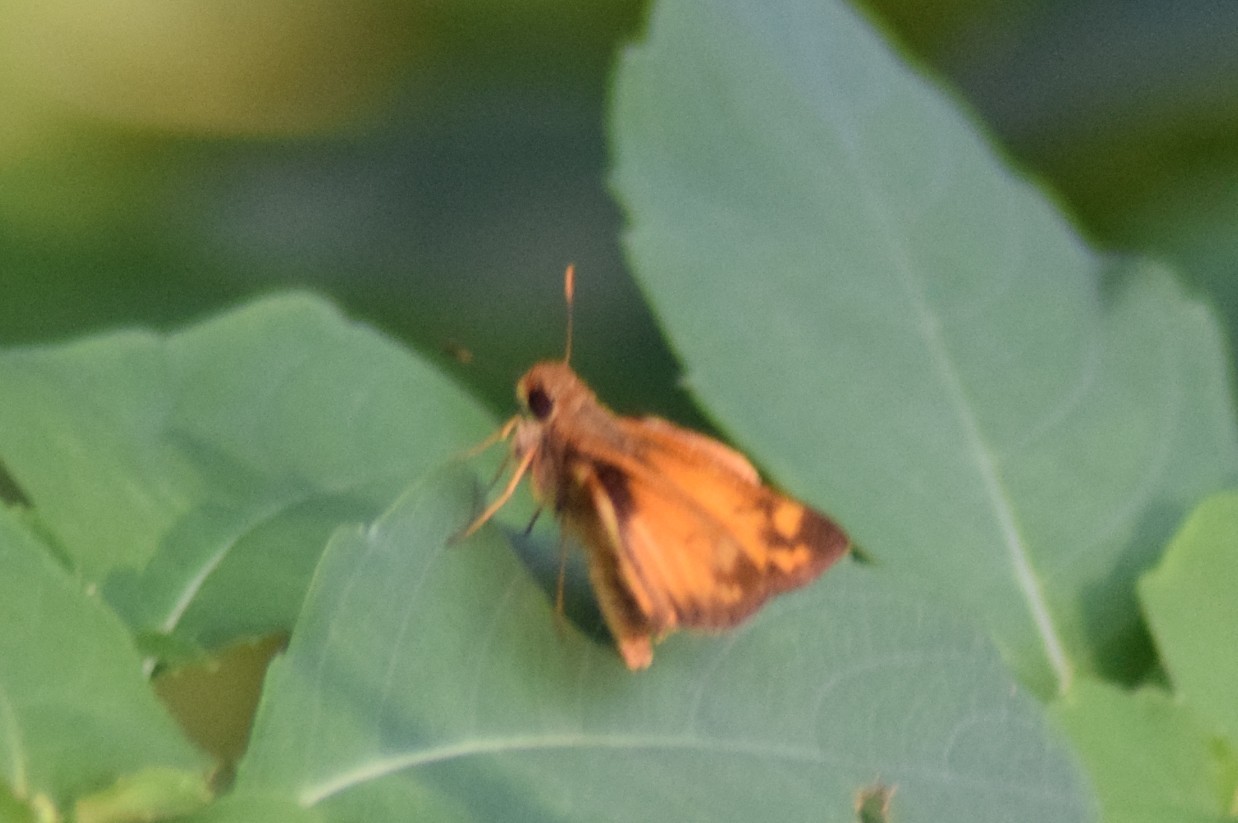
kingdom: Animalia
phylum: Arthropoda
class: Insecta
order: Lepidoptera
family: Hesperiidae
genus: Lon
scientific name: Lon zabulon
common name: Zabulon skipper
